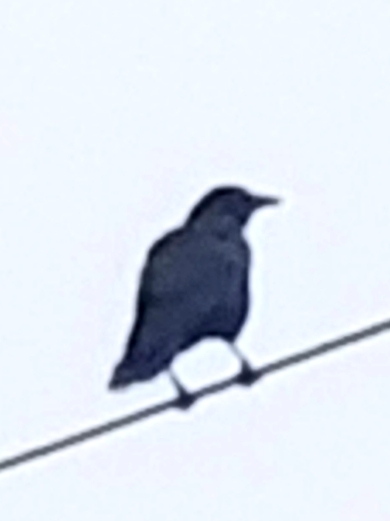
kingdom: Animalia
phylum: Chordata
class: Aves
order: Passeriformes
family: Corvidae
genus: Corvus
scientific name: Corvus brachyrhynchos
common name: American crow
